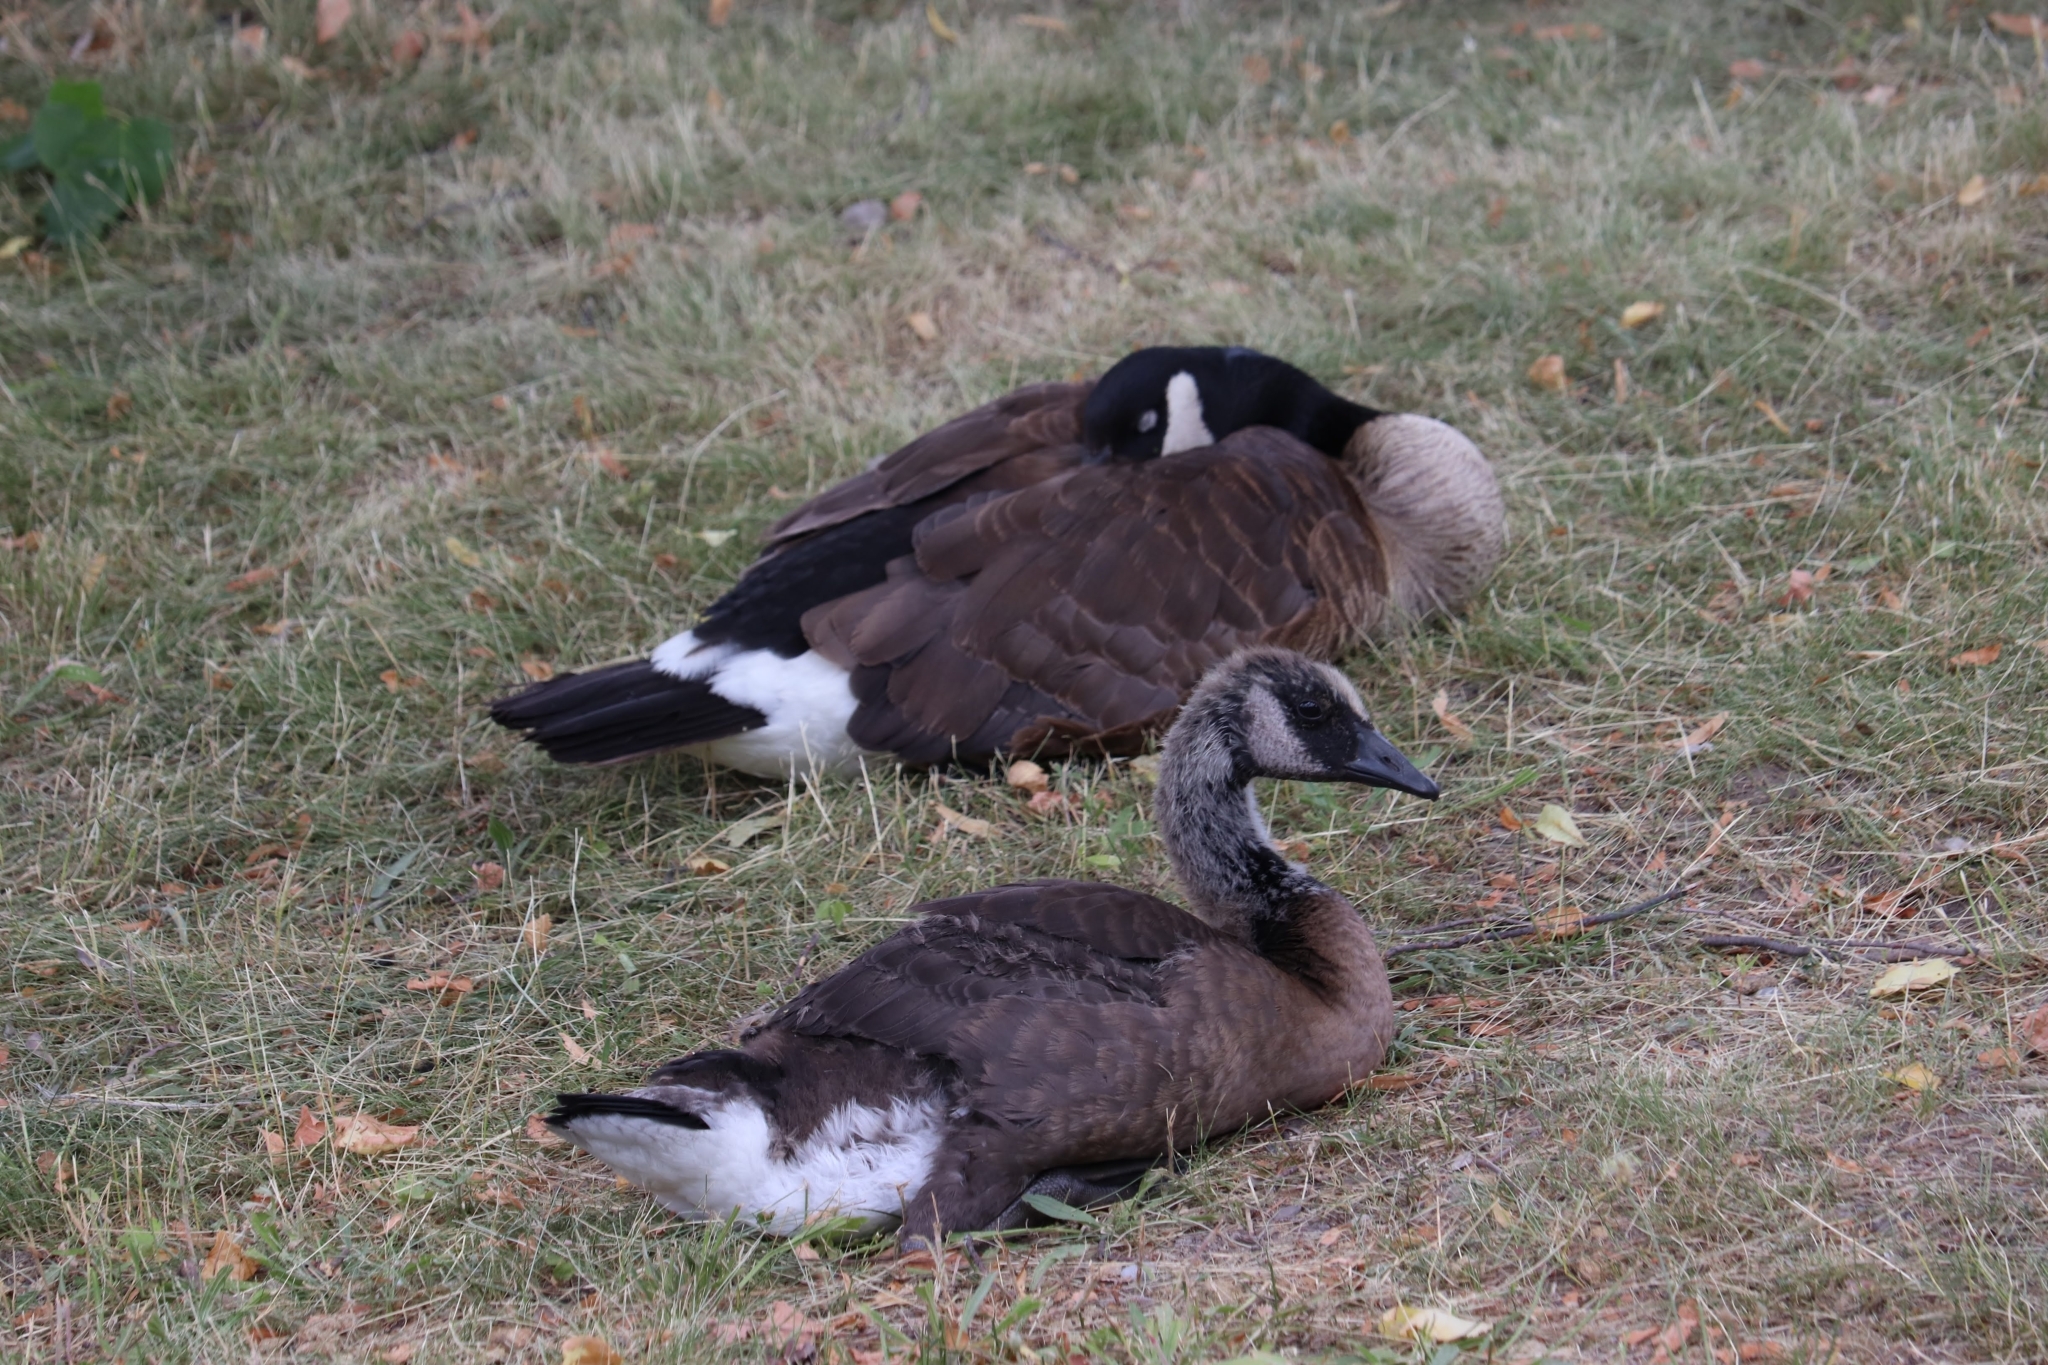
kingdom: Animalia
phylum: Chordata
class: Aves
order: Anseriformes
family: Anatidae
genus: Branta
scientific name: Branta canadensis
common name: Canada goose
